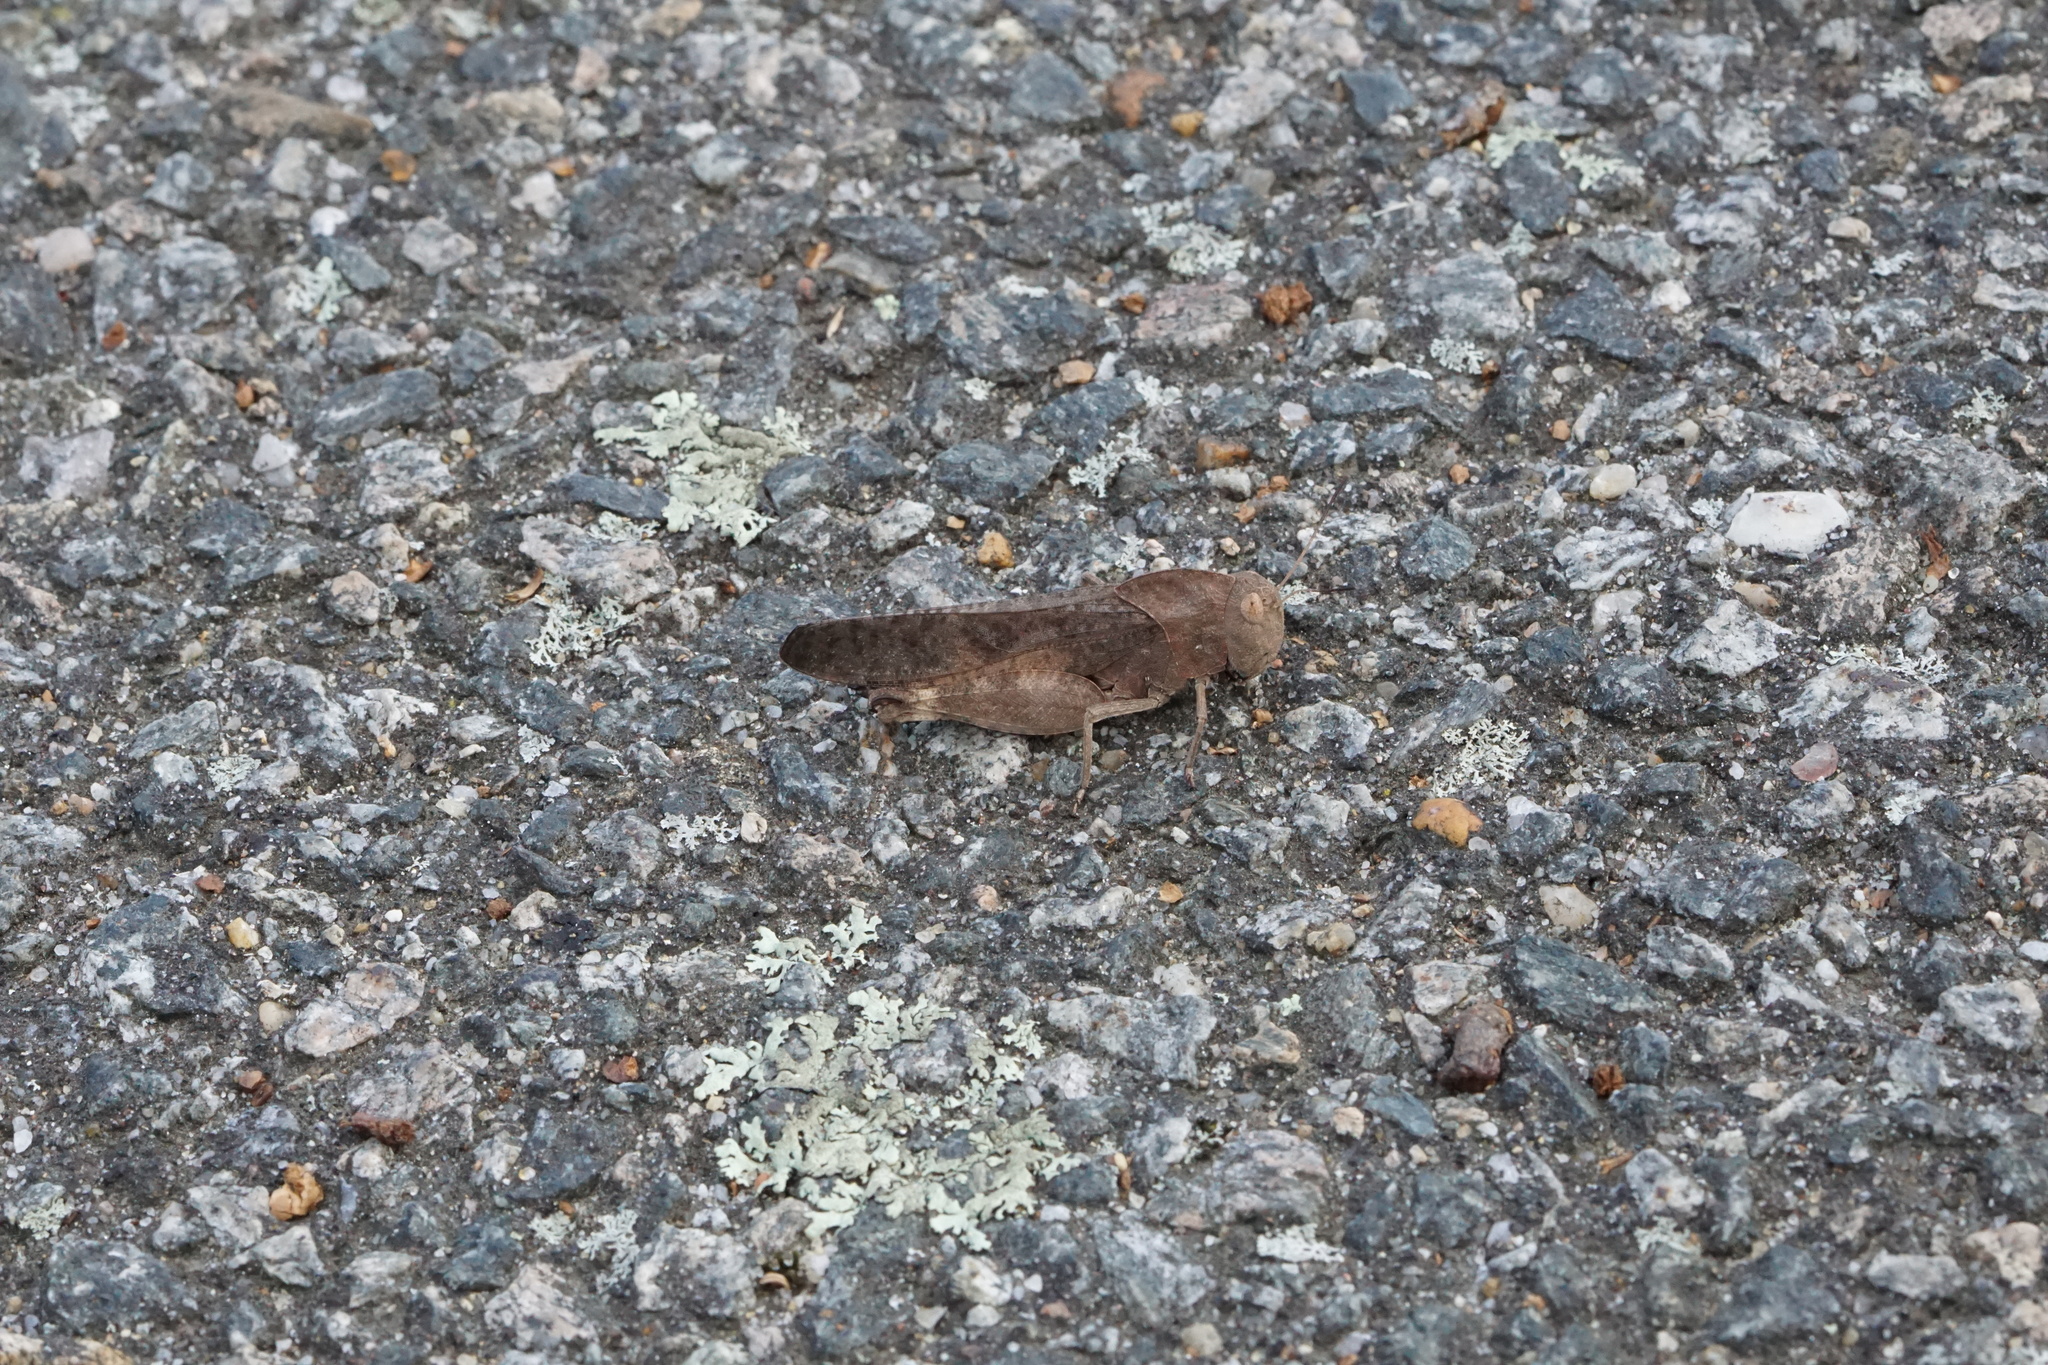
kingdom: Animalia
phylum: Arthropoda
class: Insecta
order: Orthoptera
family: Acrididae
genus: Arphia
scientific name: Arphia xanthoptera
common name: Autumn yellow-winged grasshopper
